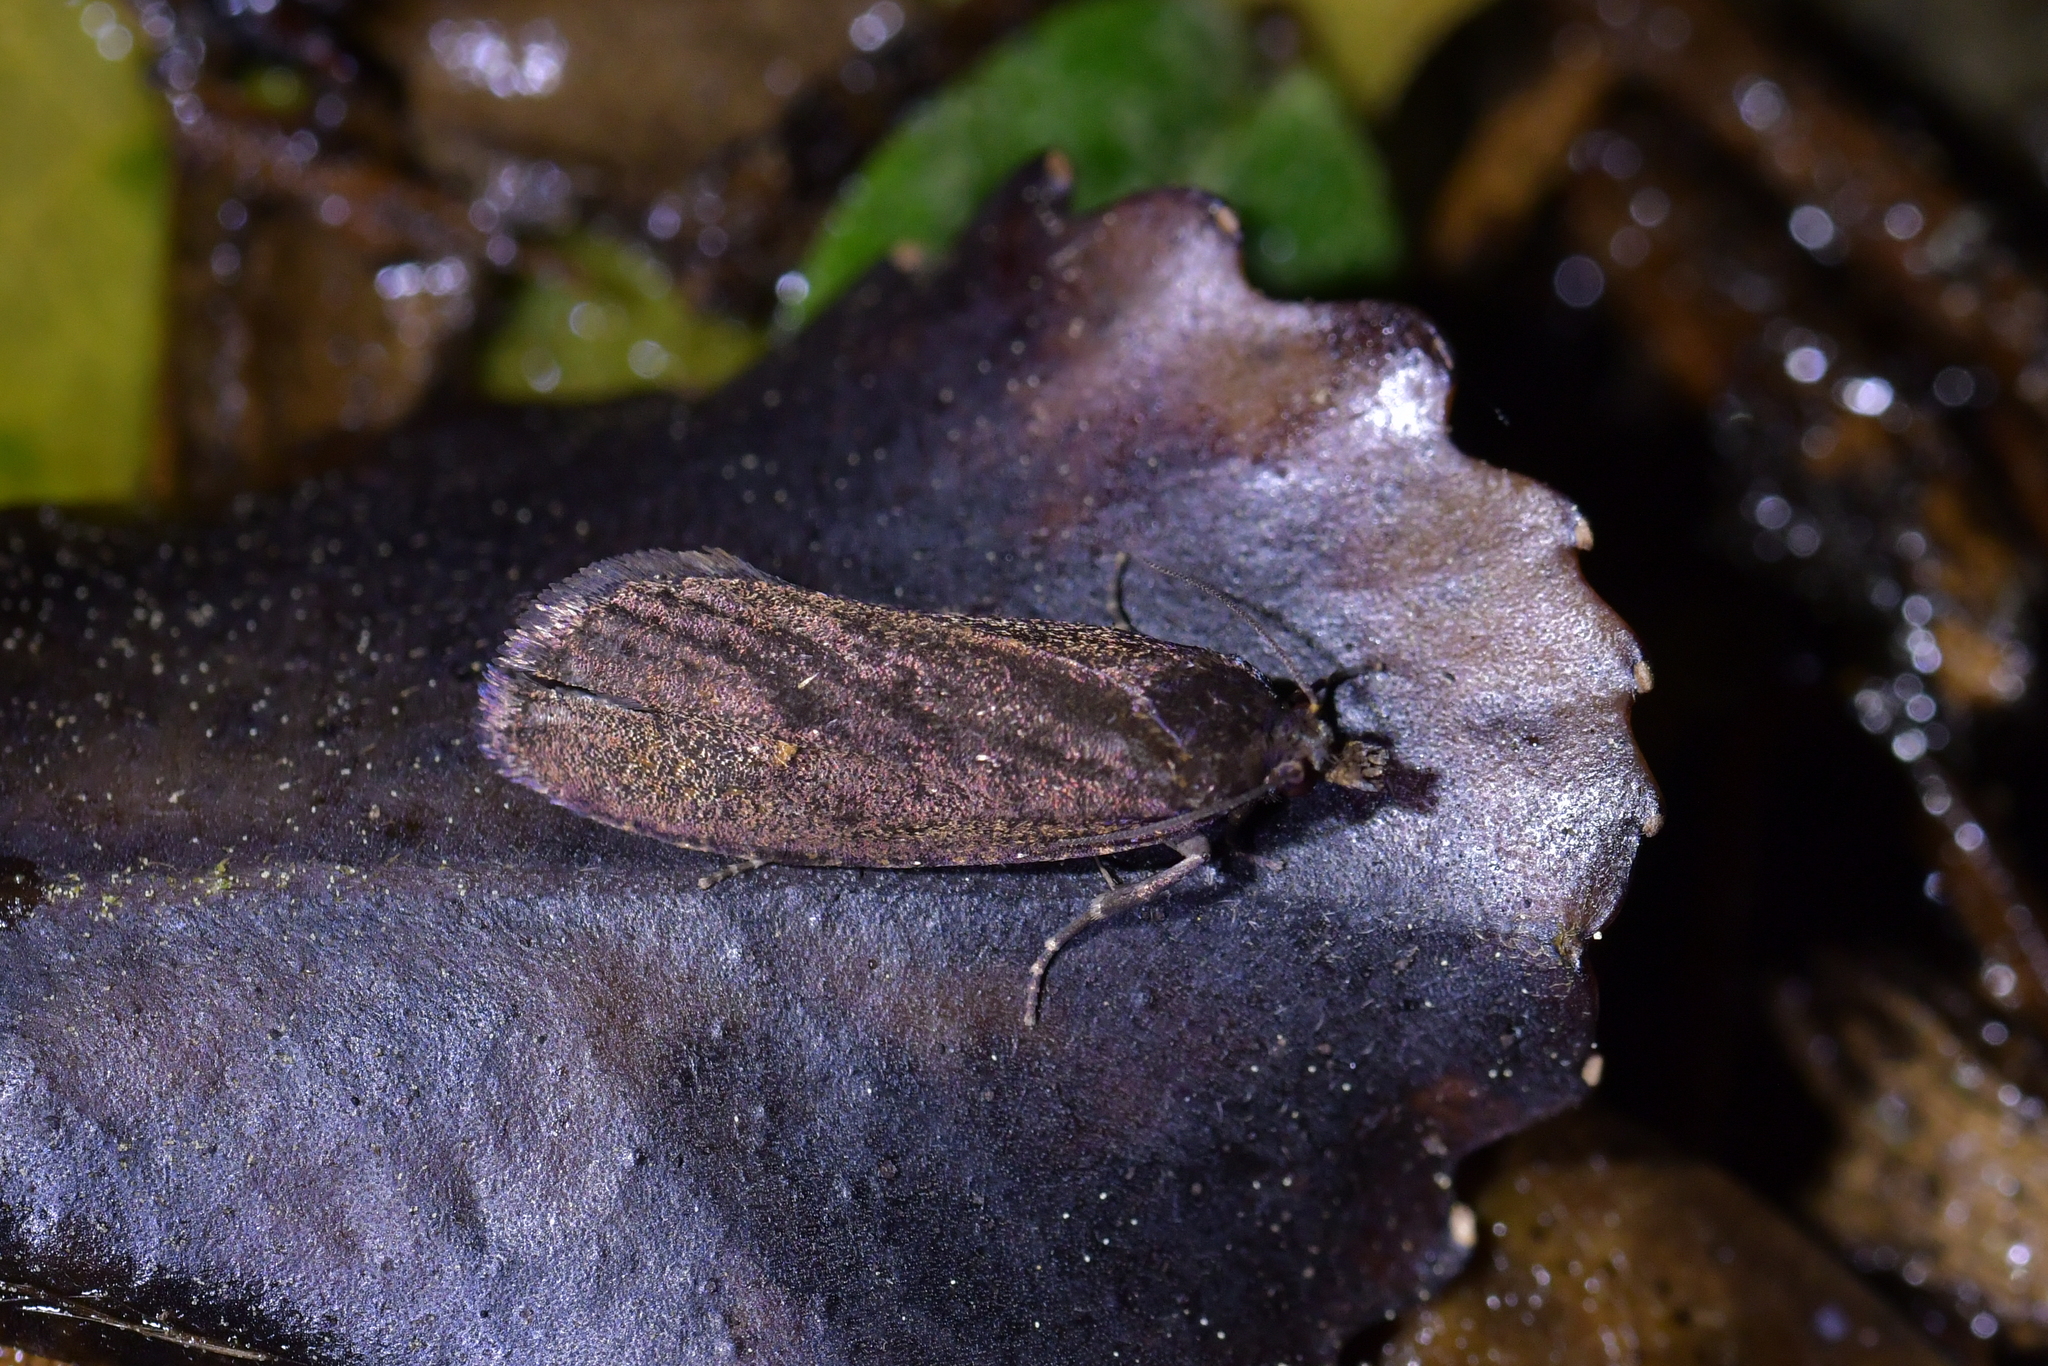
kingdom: Animalia
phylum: Arthropoda
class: Insecta
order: Lepidoptera
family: Tortricidae
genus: Cryptaspasma
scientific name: Cryptaspasma querula
